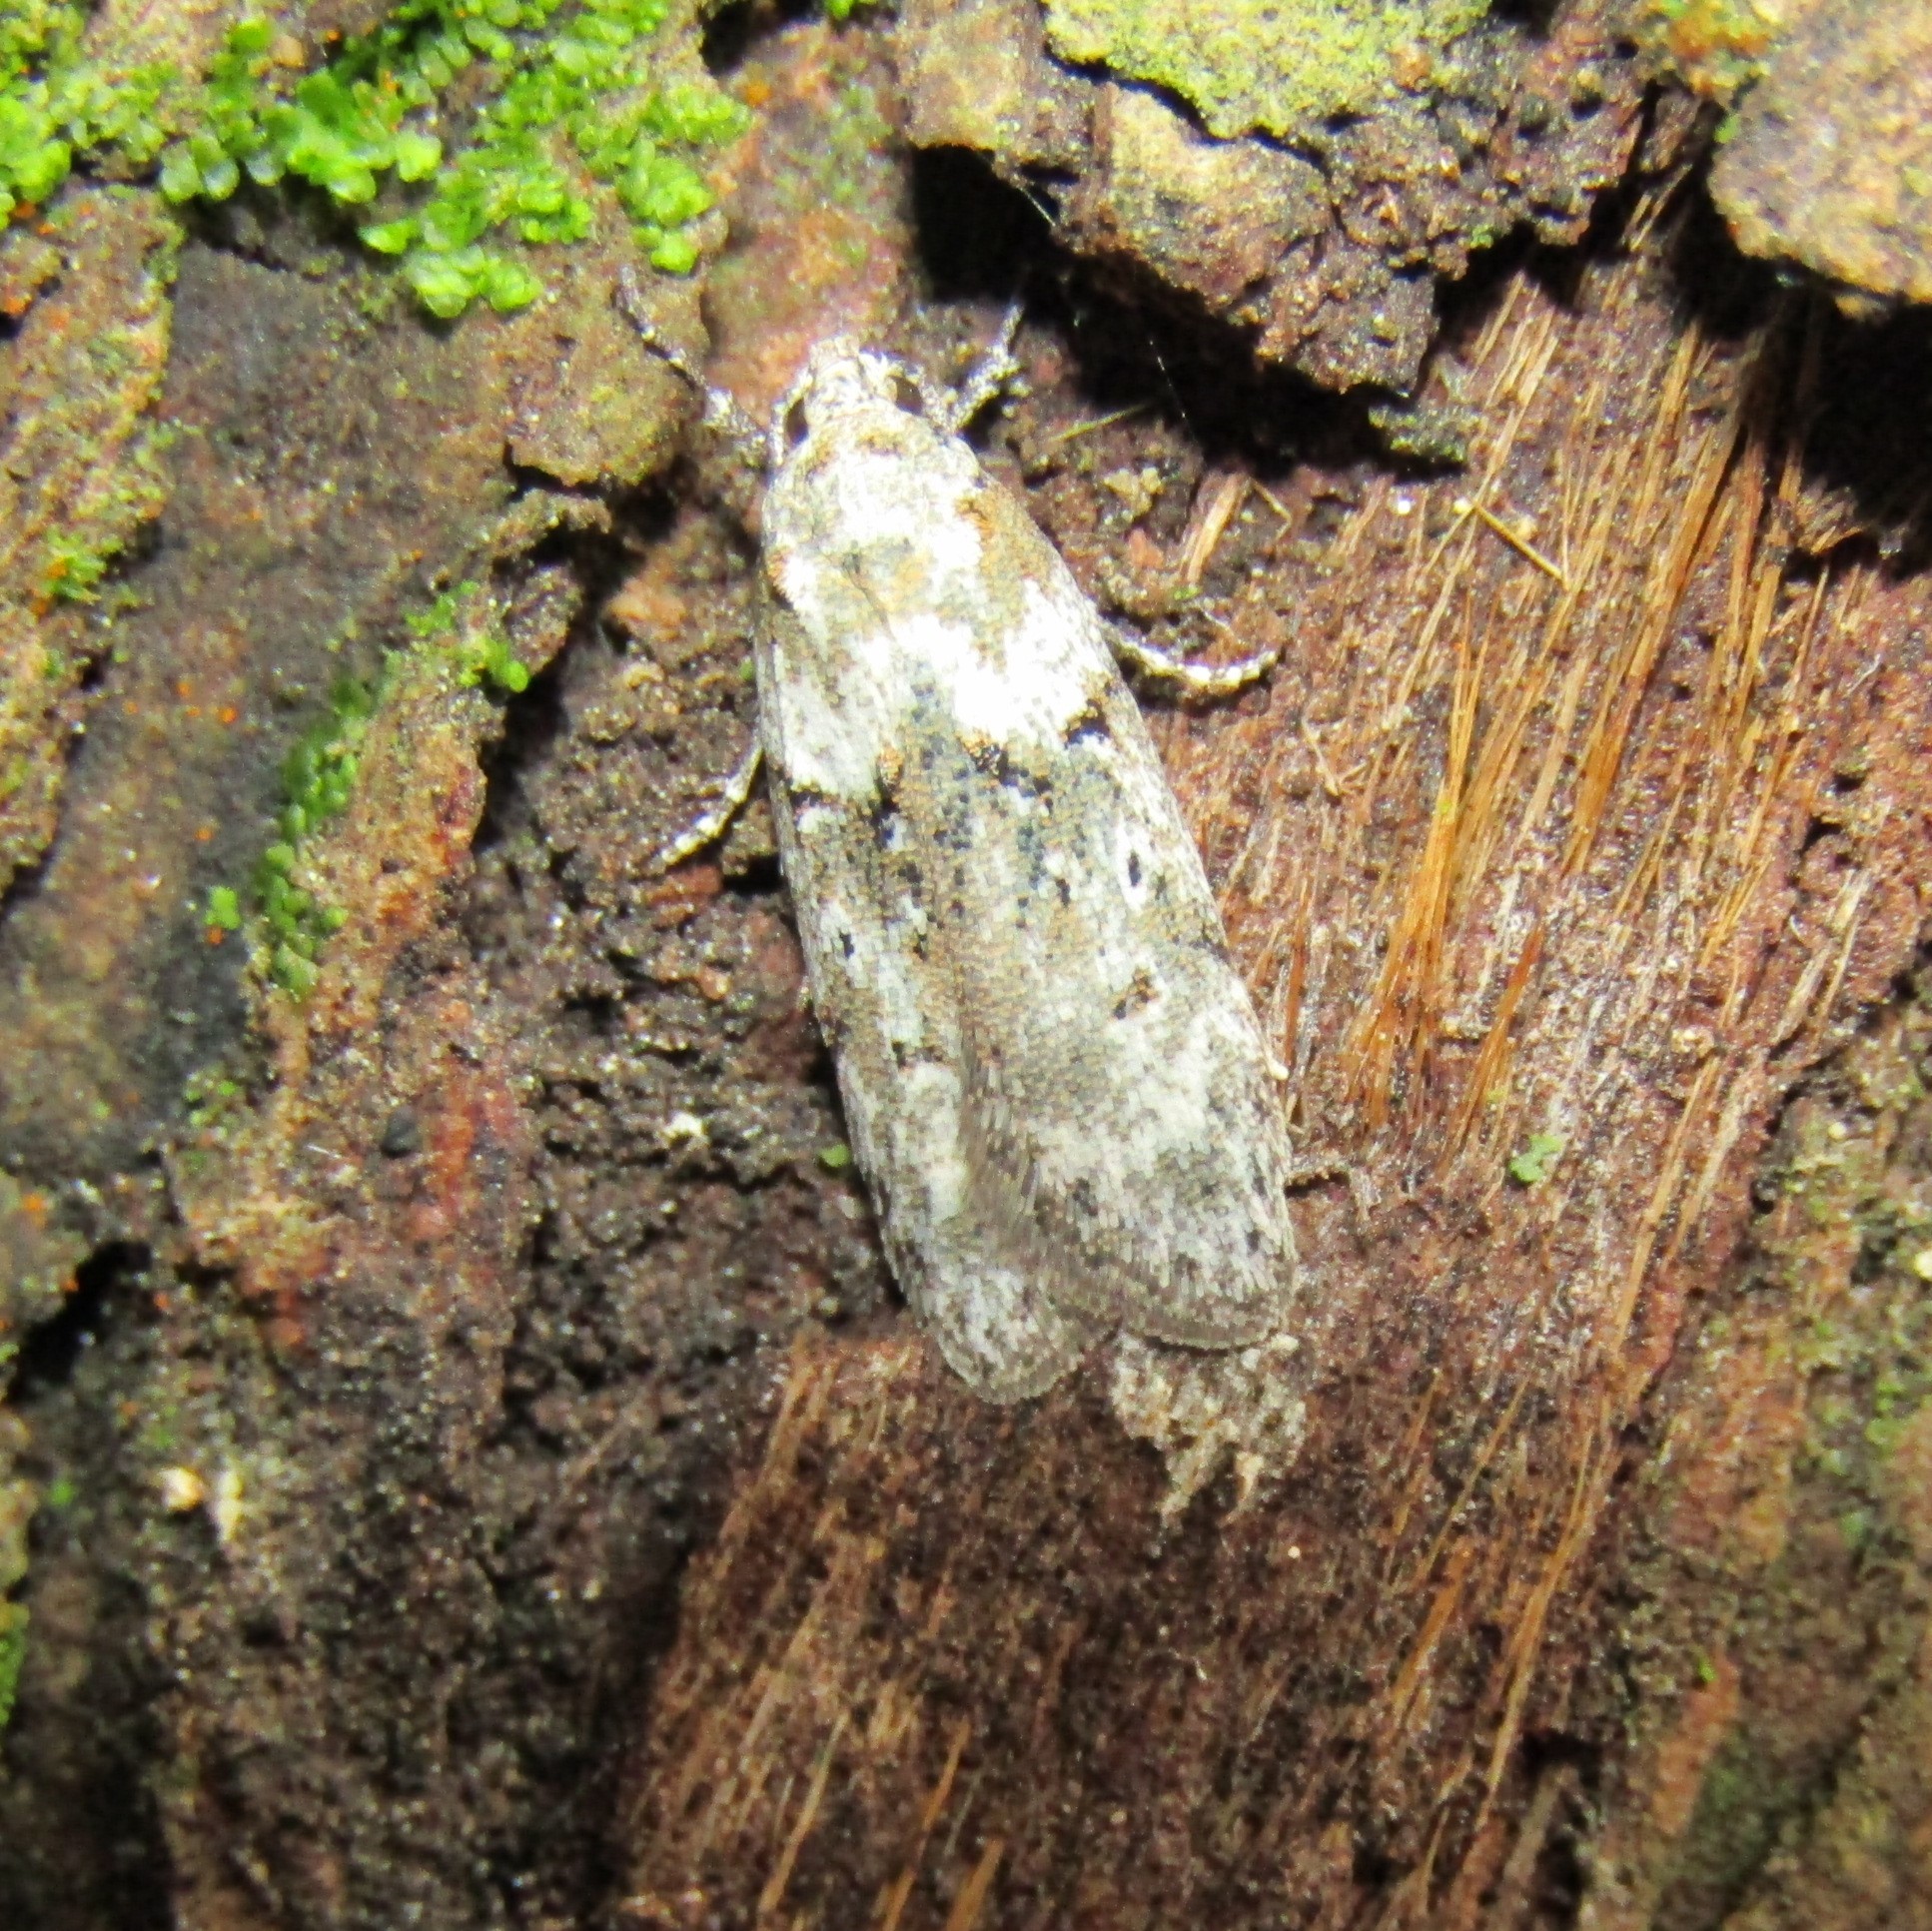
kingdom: Animalia
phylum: Arthropoda
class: Insecta
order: Lepidoptera
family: Oecophoridae
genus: Izatha
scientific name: Izatha convulsella
